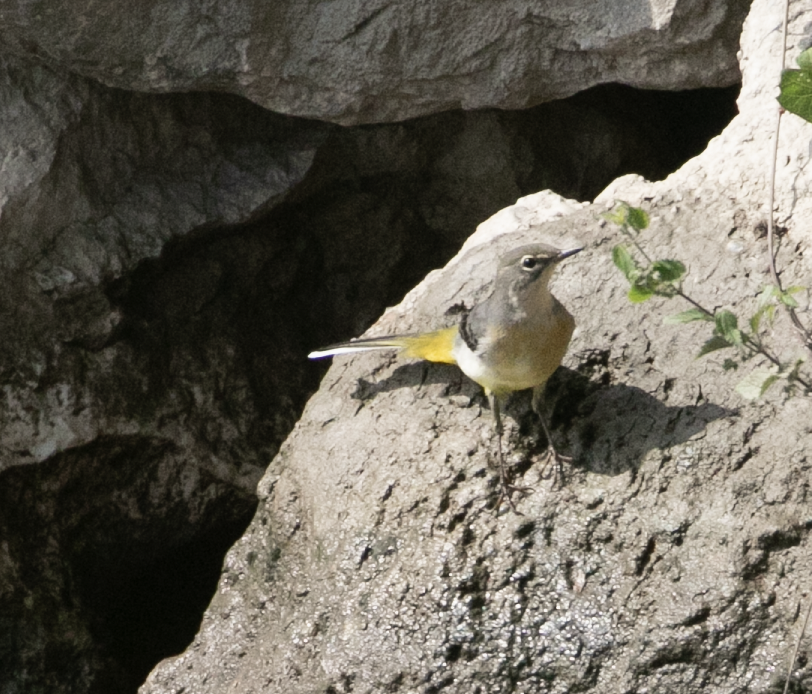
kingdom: Animalia
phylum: Chordata
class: Aves
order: Passeriformes
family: Motacillidae
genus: Motacilla
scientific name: Motacilla cinerea
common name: Grey wagtail
